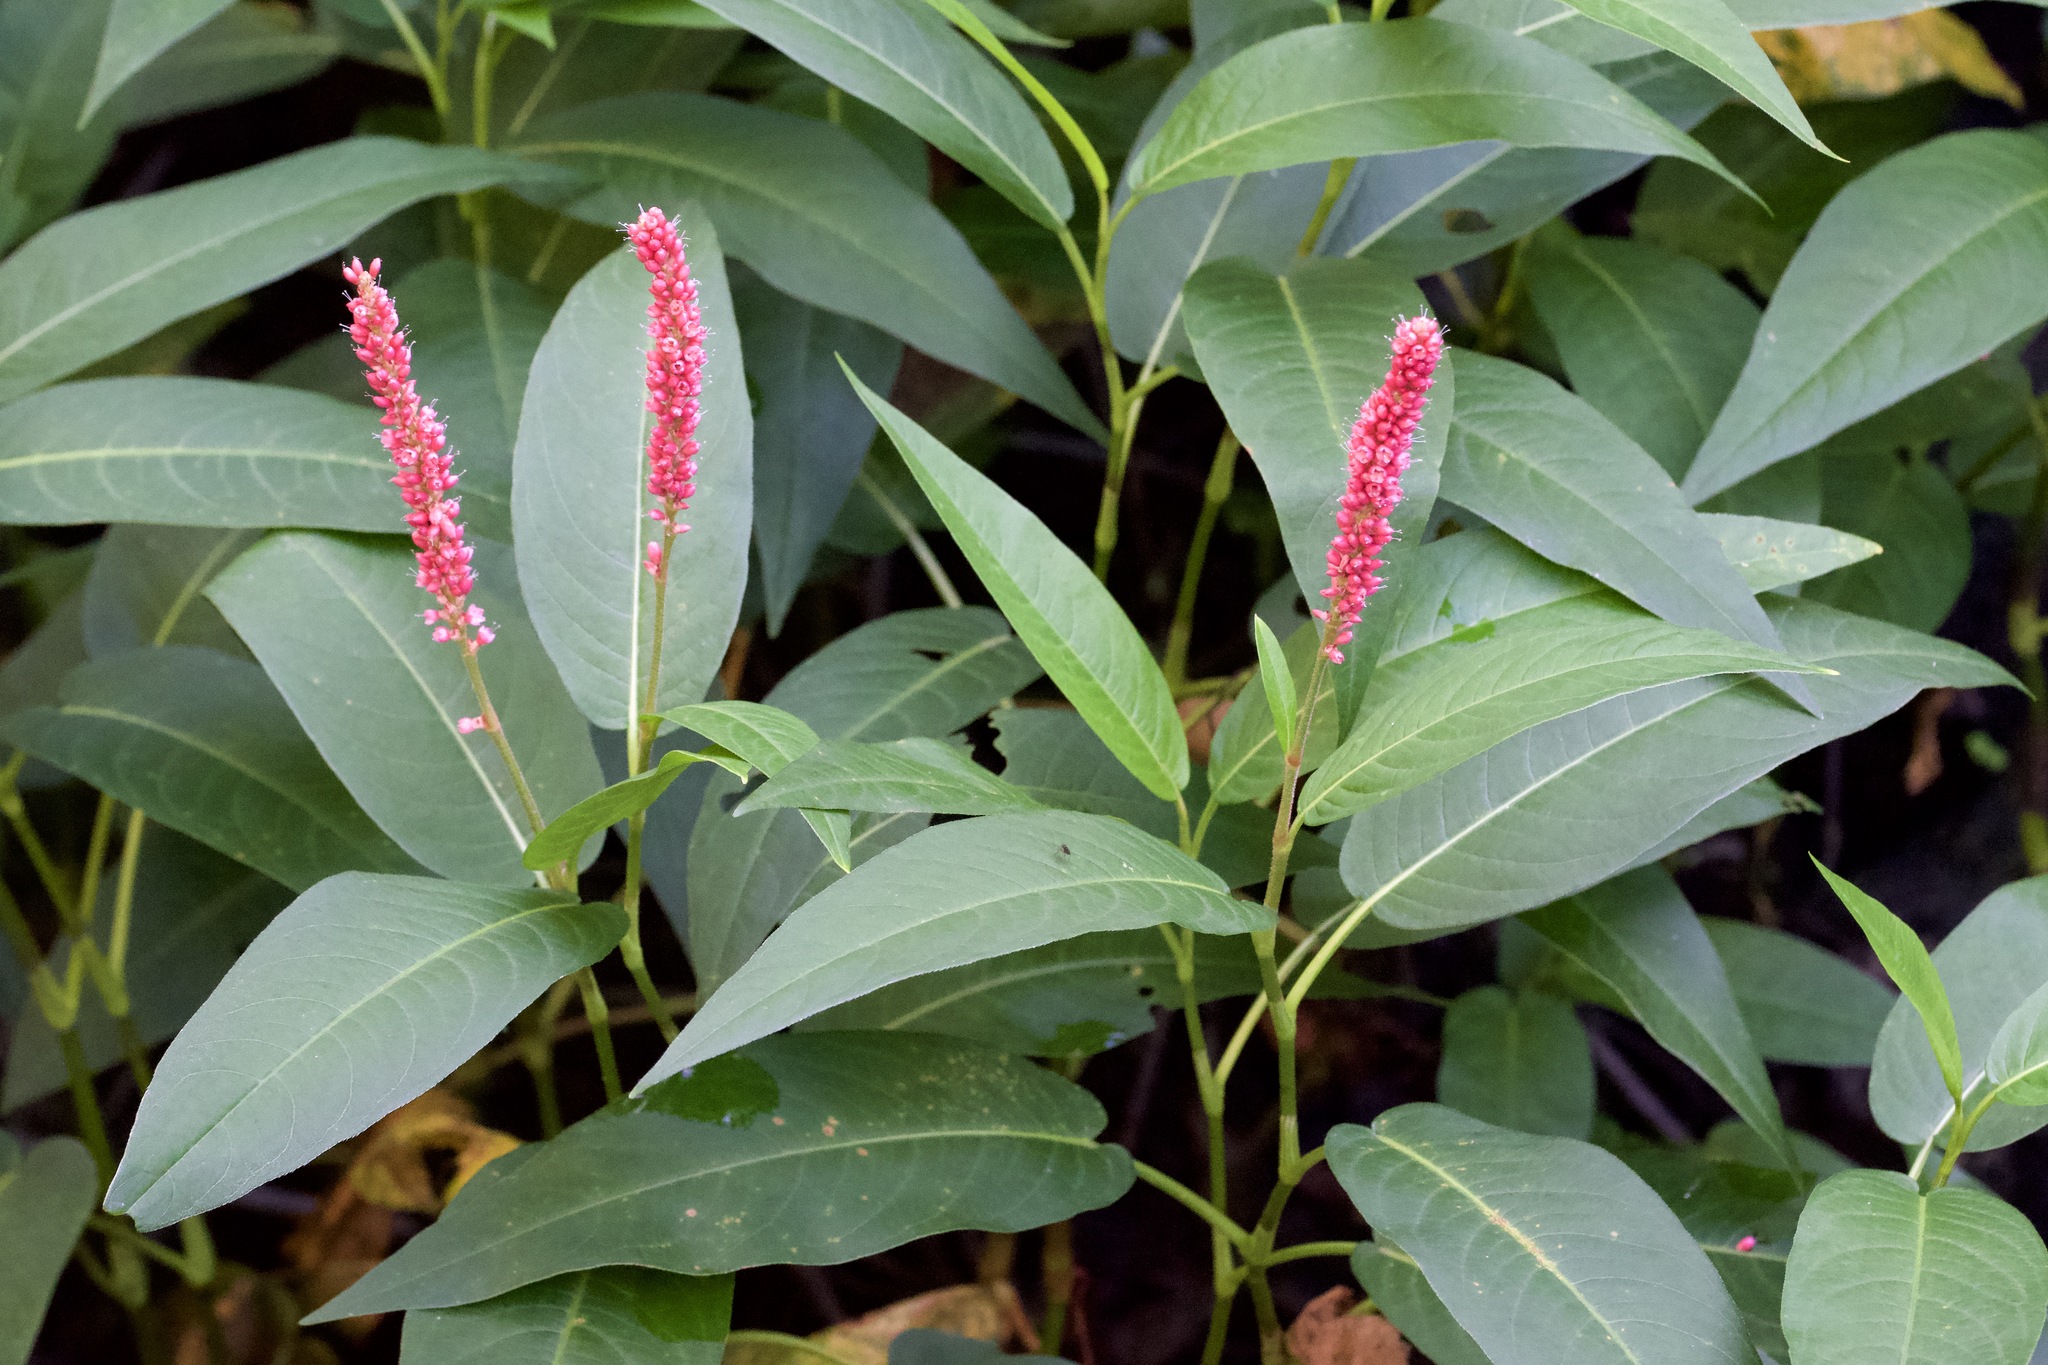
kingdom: Plantae
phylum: Tracheophyta
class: Magnoliopsida
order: Caryophyllales
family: Polygonaceae
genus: Persicaria
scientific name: Persicaria amphibia
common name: Amphibious bistort
